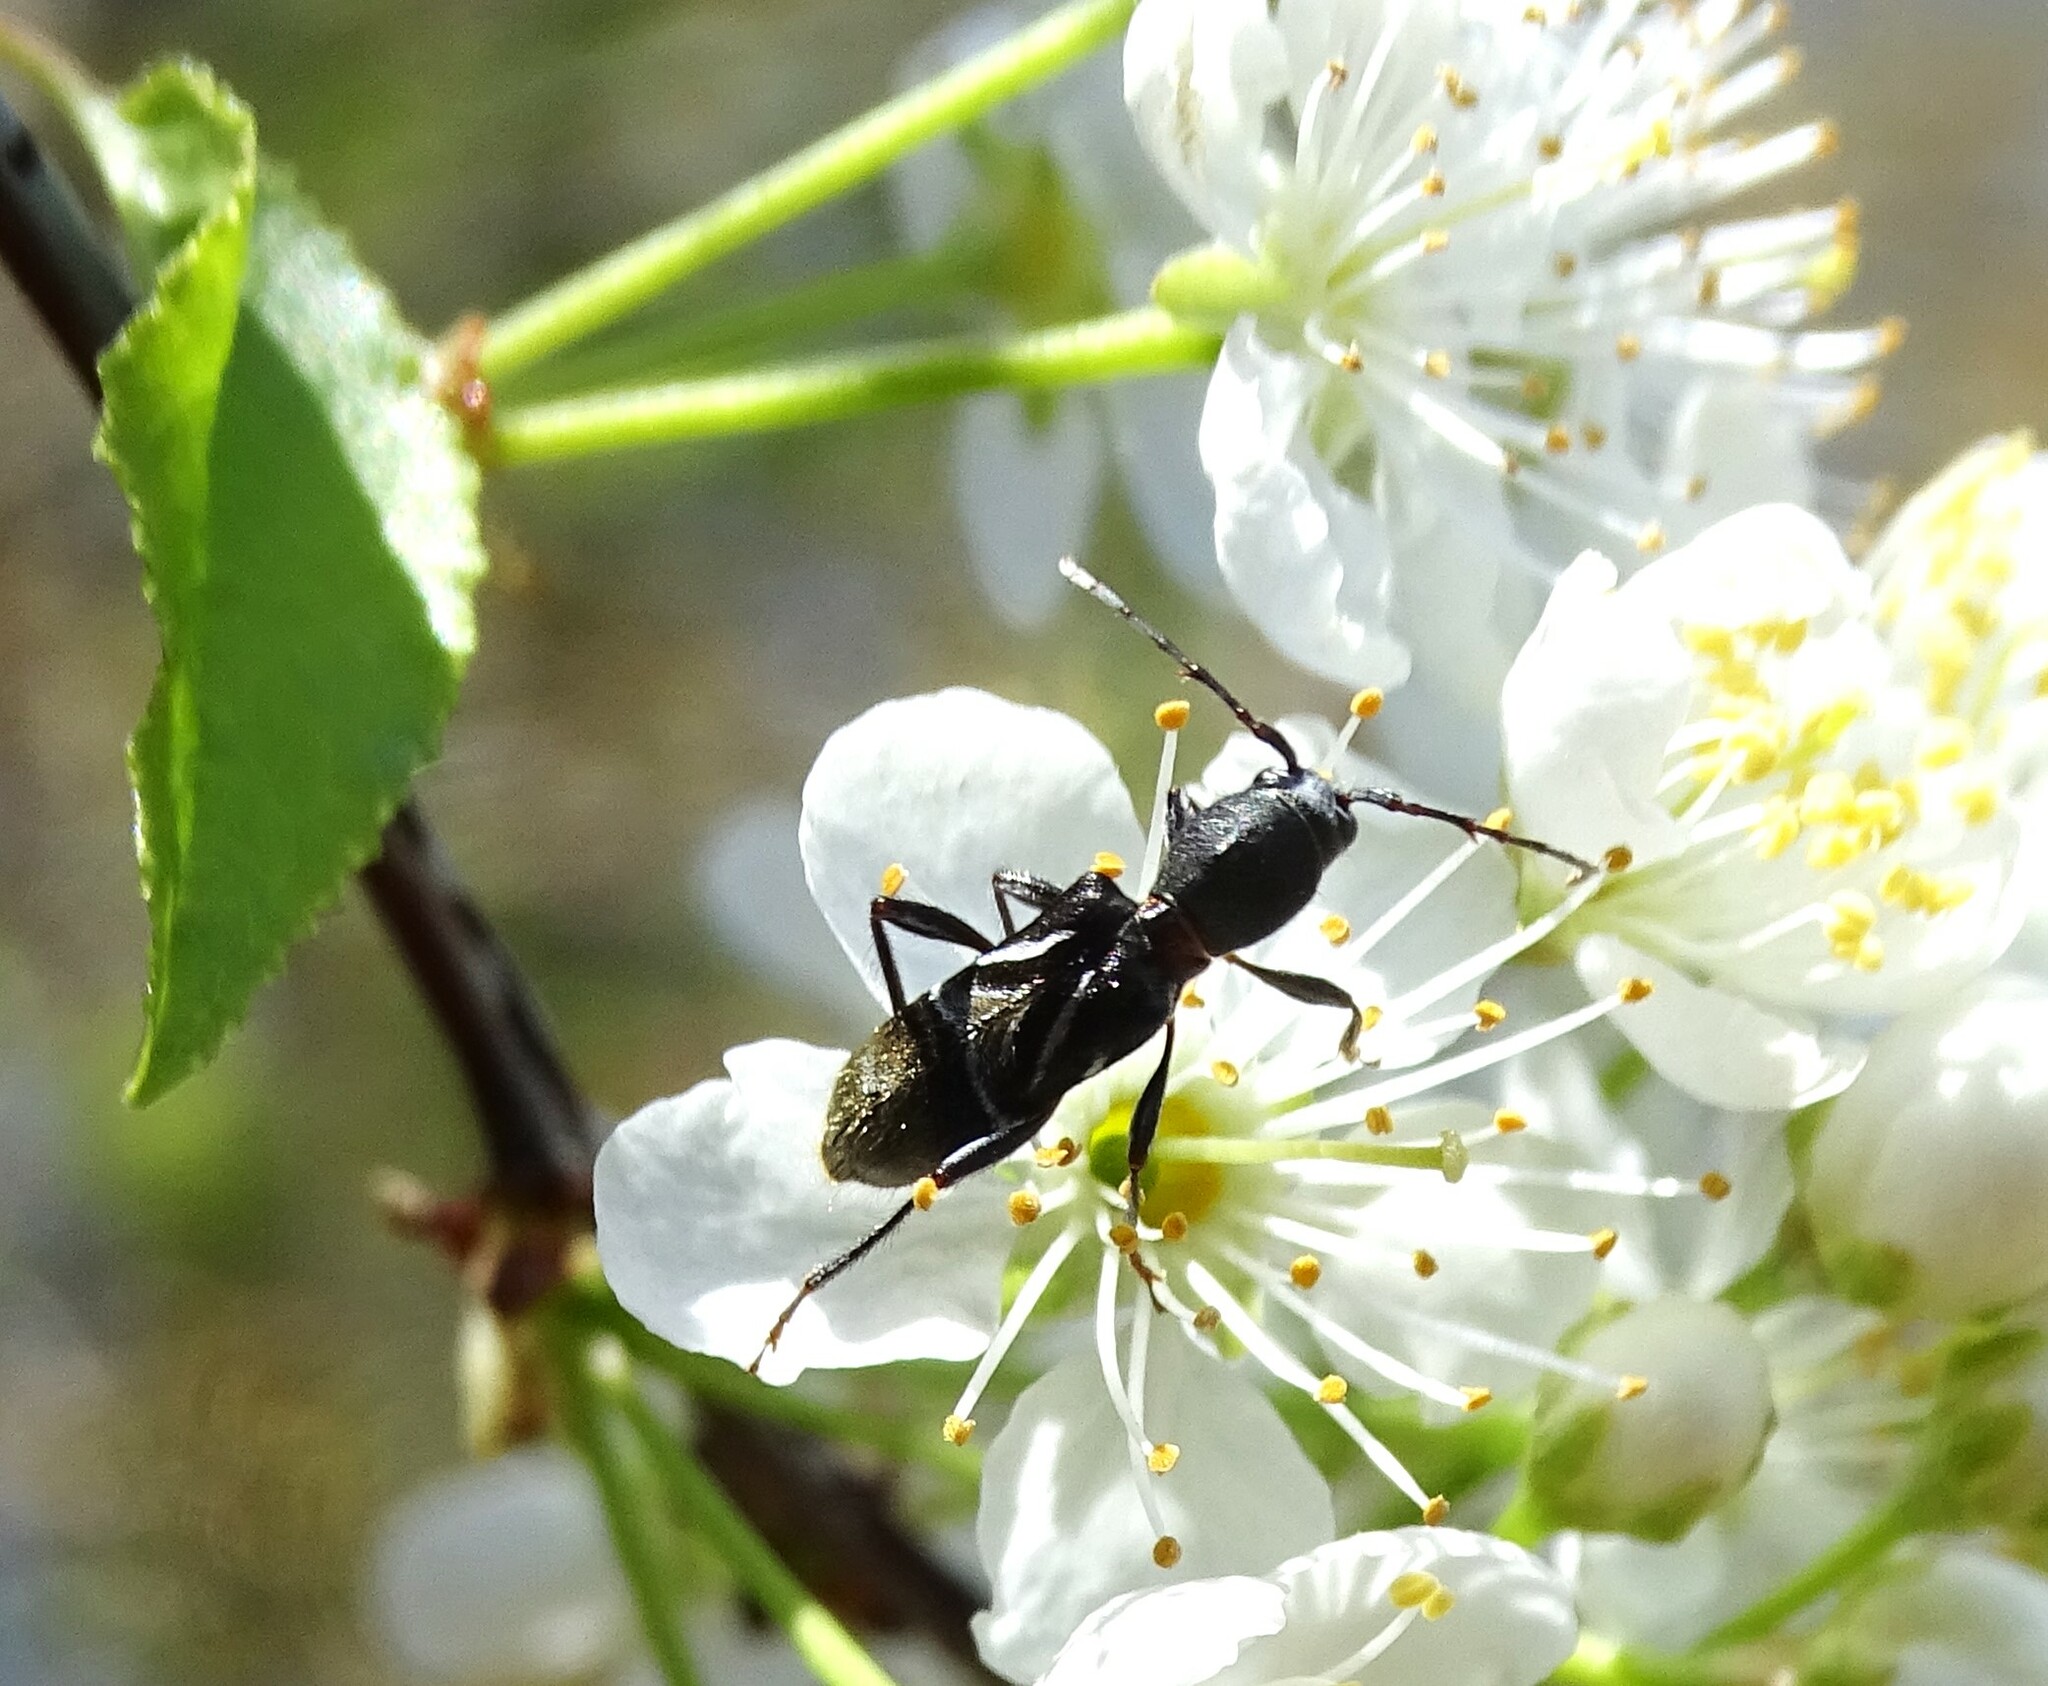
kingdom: Animalia
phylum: Arthropoda
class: Insecta
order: Coleoptera
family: Cerambycidae
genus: Cyrtophorus
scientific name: Cyrtophorus verrucosus
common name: Ant-like longhorn beetle
